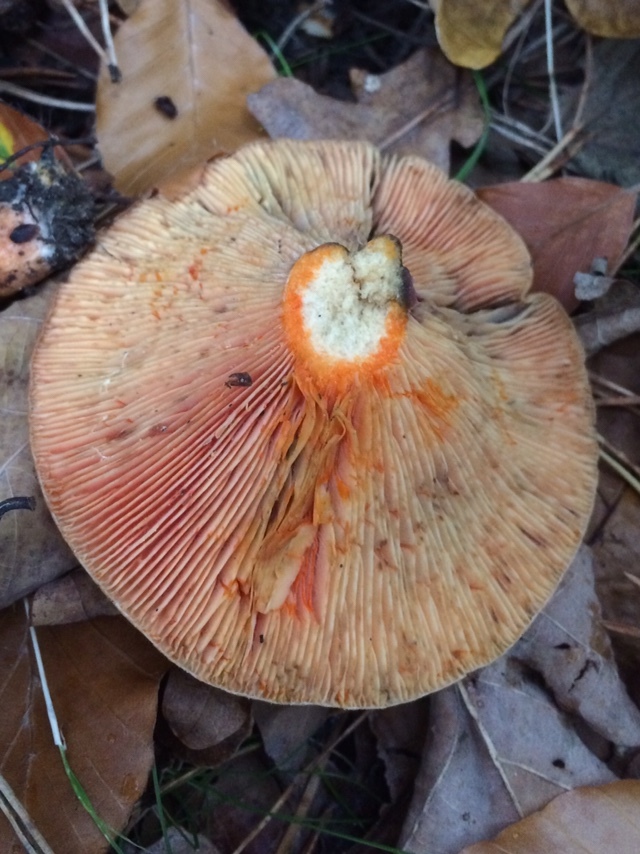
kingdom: Fungi
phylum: Basidiomycota
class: Agaricomycetes
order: Russulales
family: Russulaceae
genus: Lactarius
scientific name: Lactarius deliciosus
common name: Saffron milk-cap
